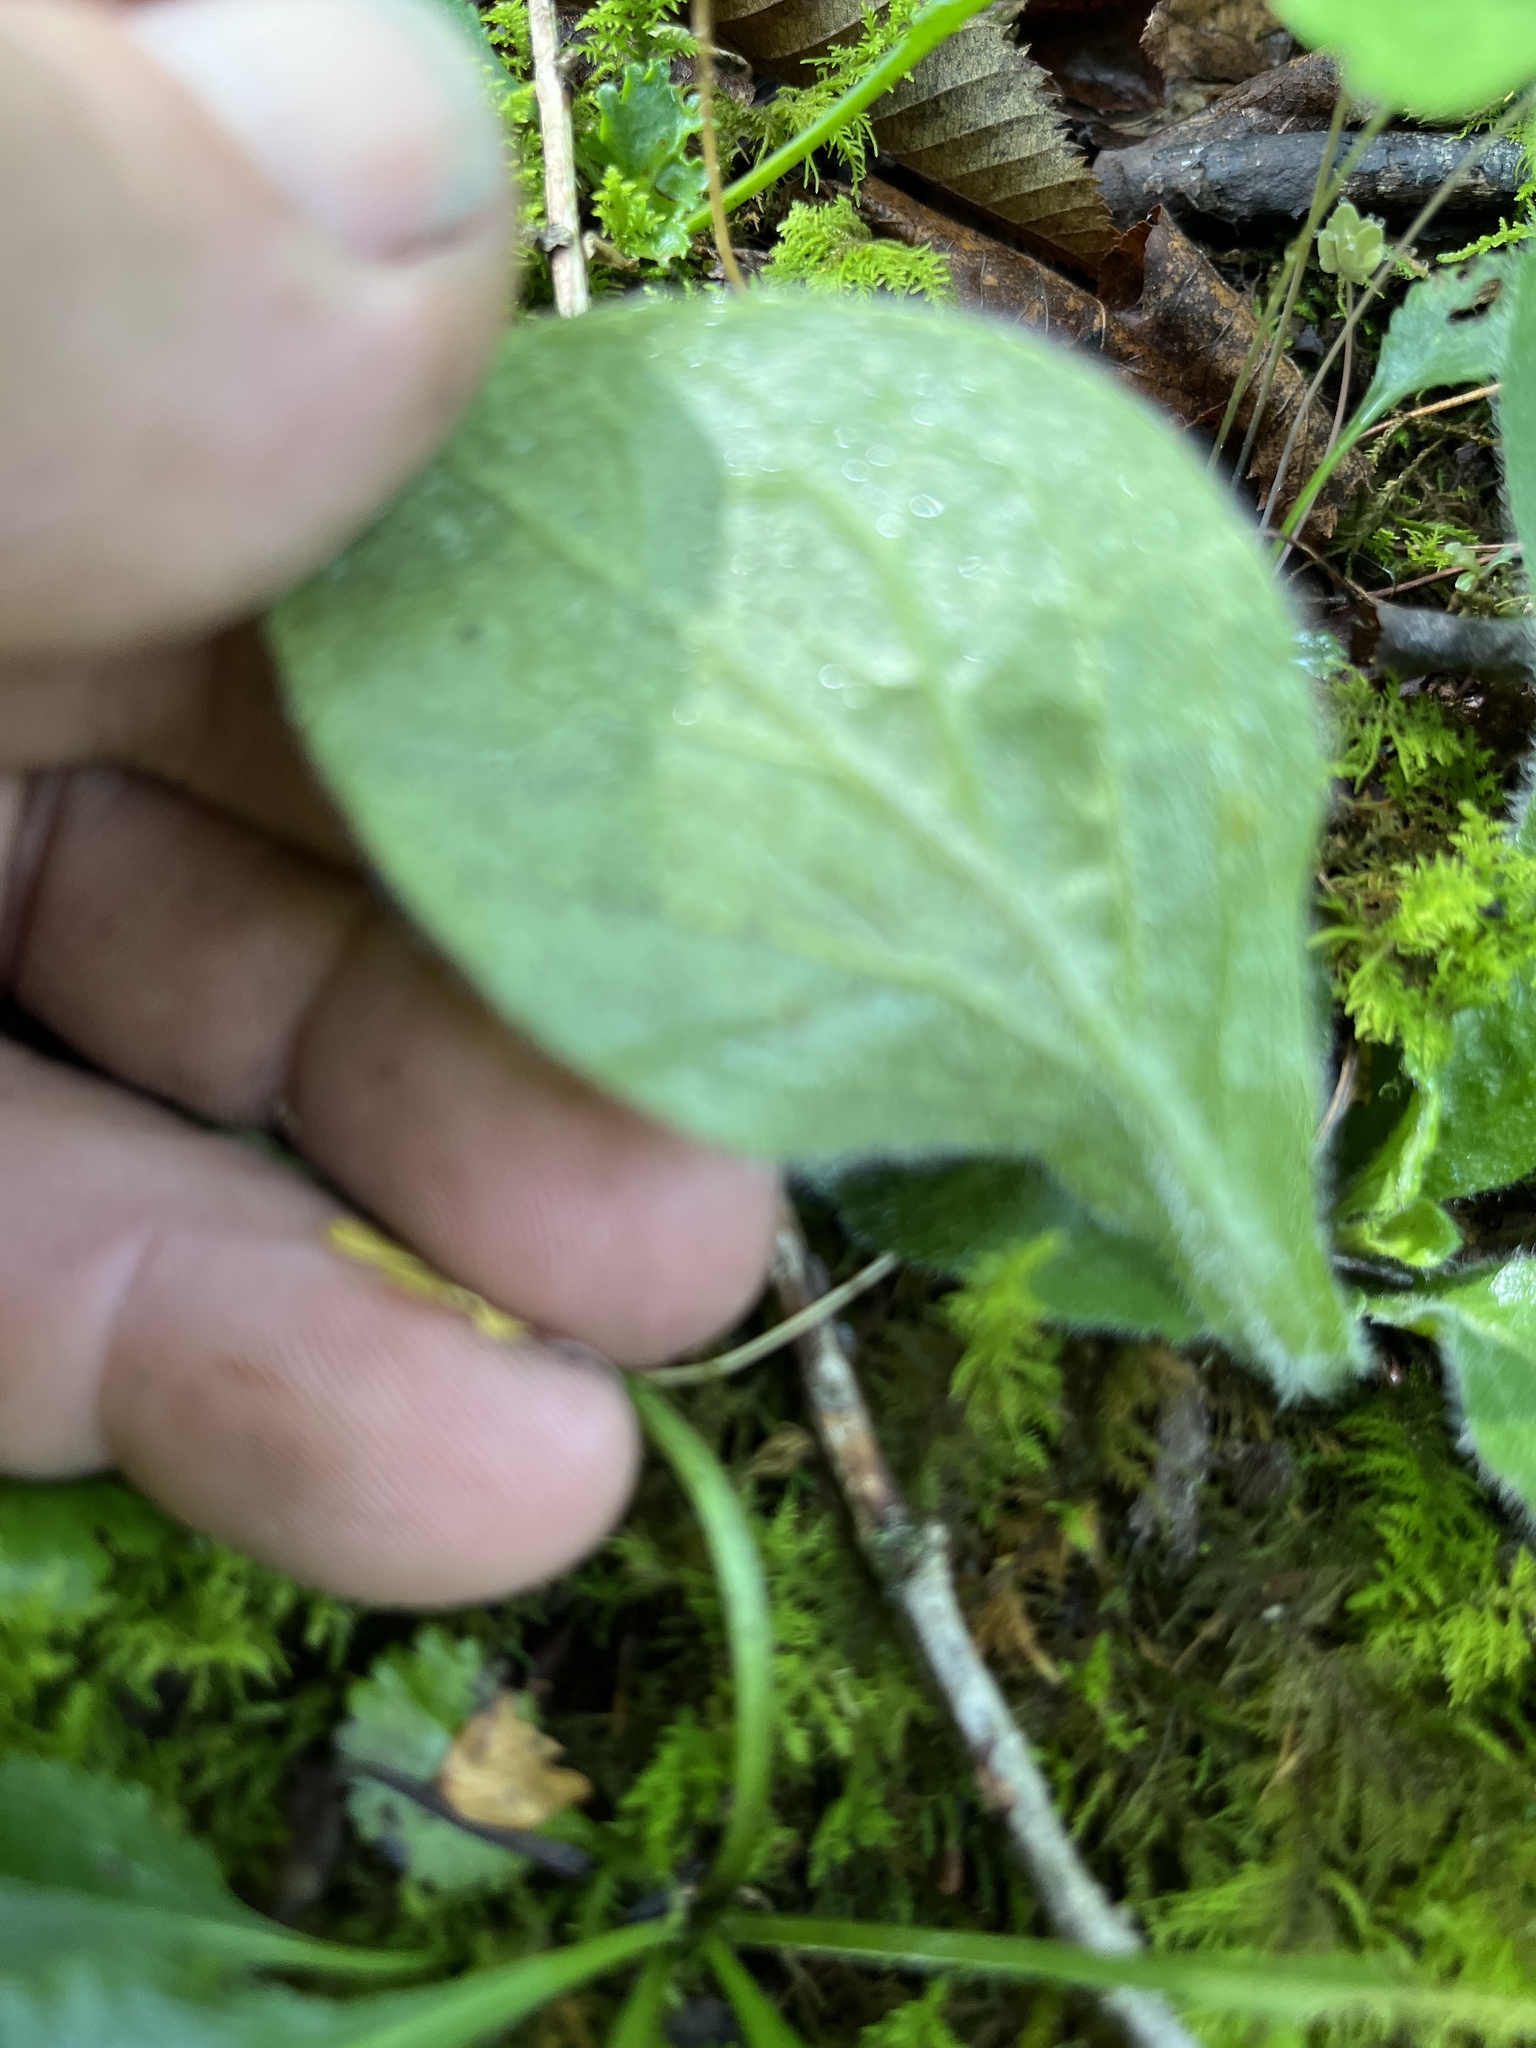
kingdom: Plantae
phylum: Tracheophyta
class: Magnoliopsida
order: Asterales
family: Asteraceae
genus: Erigeron
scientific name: Erigeron pulchellus
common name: Hairy fleabane
